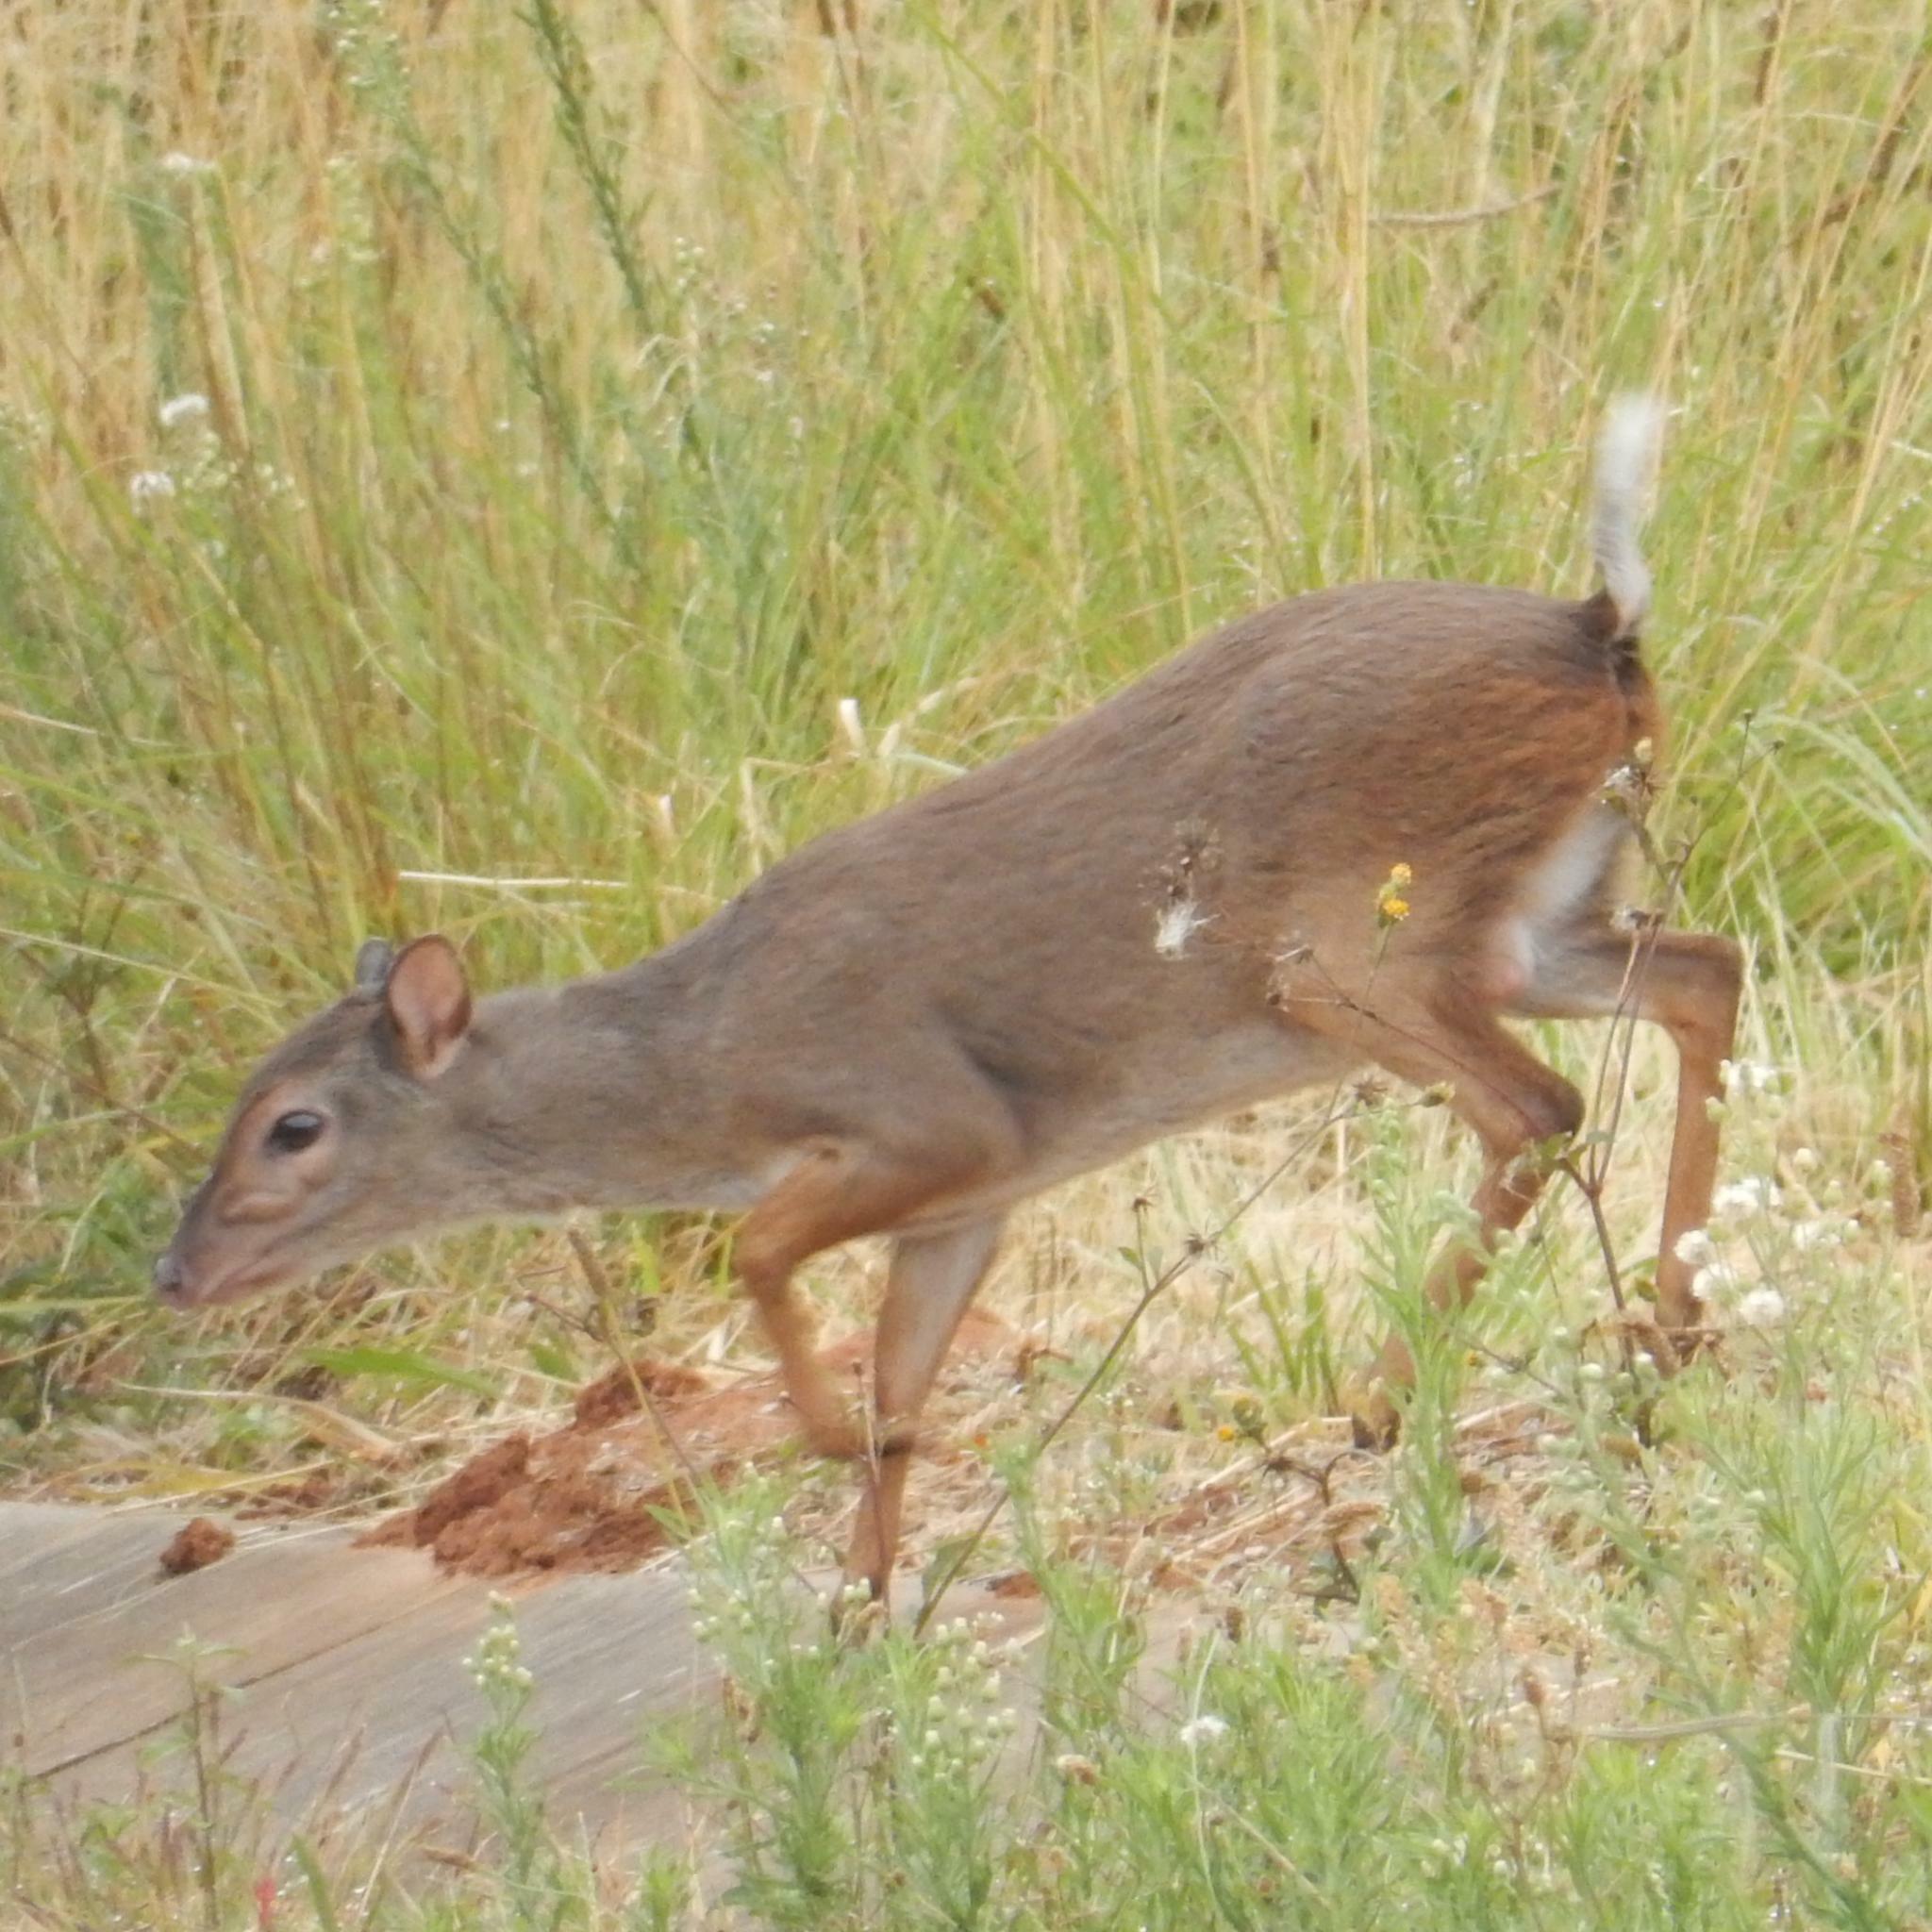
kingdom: Animalia
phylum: Chordata
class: Mammalia
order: Artiodactyla
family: Bovidae
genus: Philantomba
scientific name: Philantomba monticola
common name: Blue duiker
